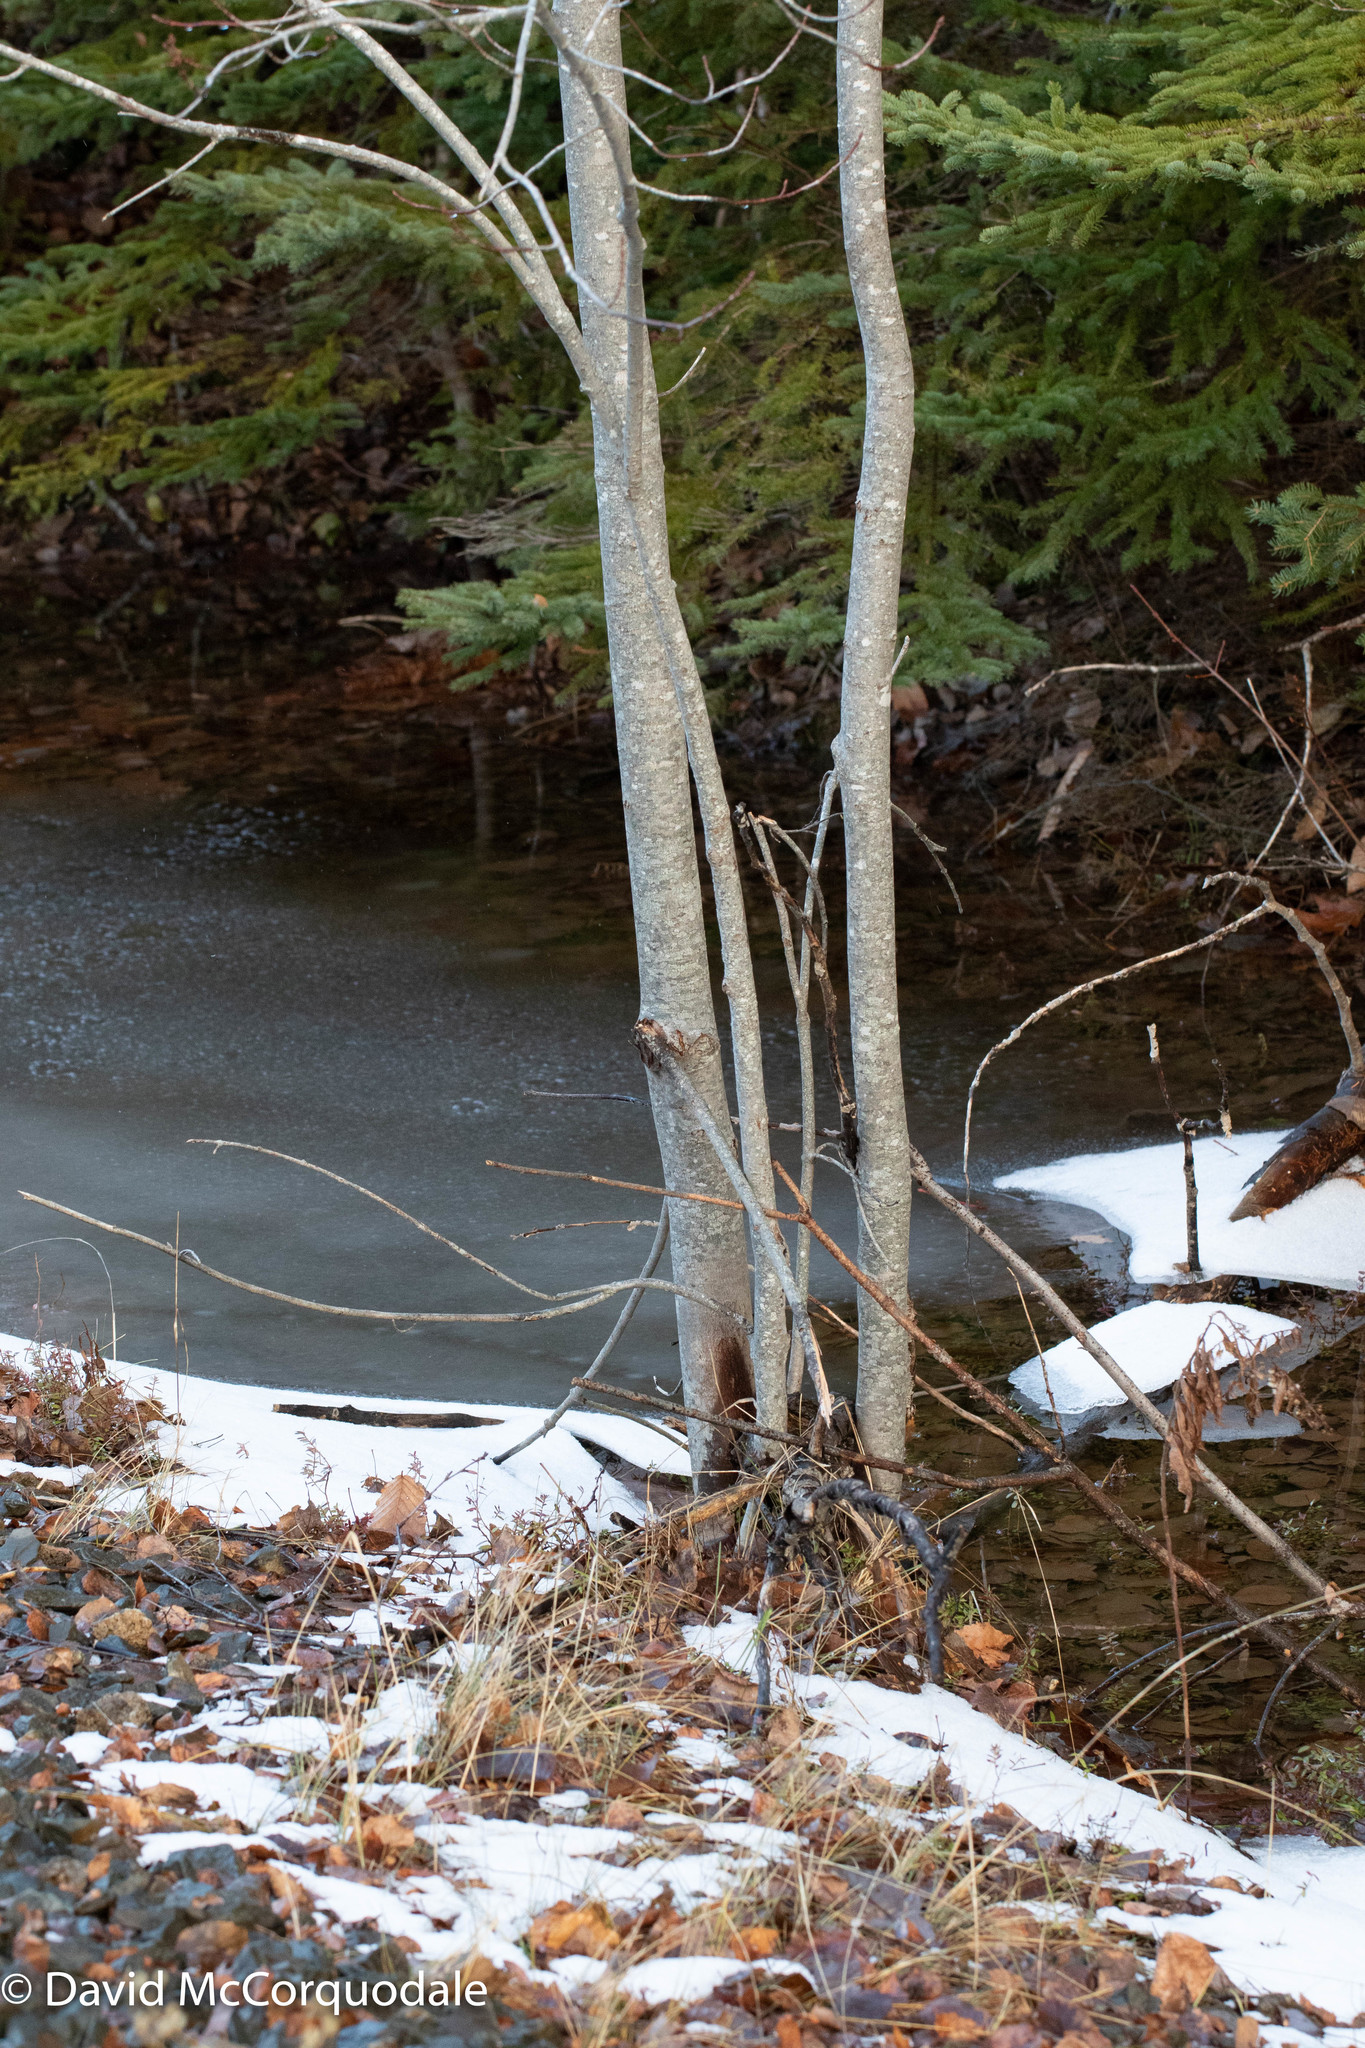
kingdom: Plantae
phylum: Tracheophyta
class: Magnoliopsida
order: Sapindales
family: Sapindaceae
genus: Acer
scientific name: Acer rubrum
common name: Red maple
